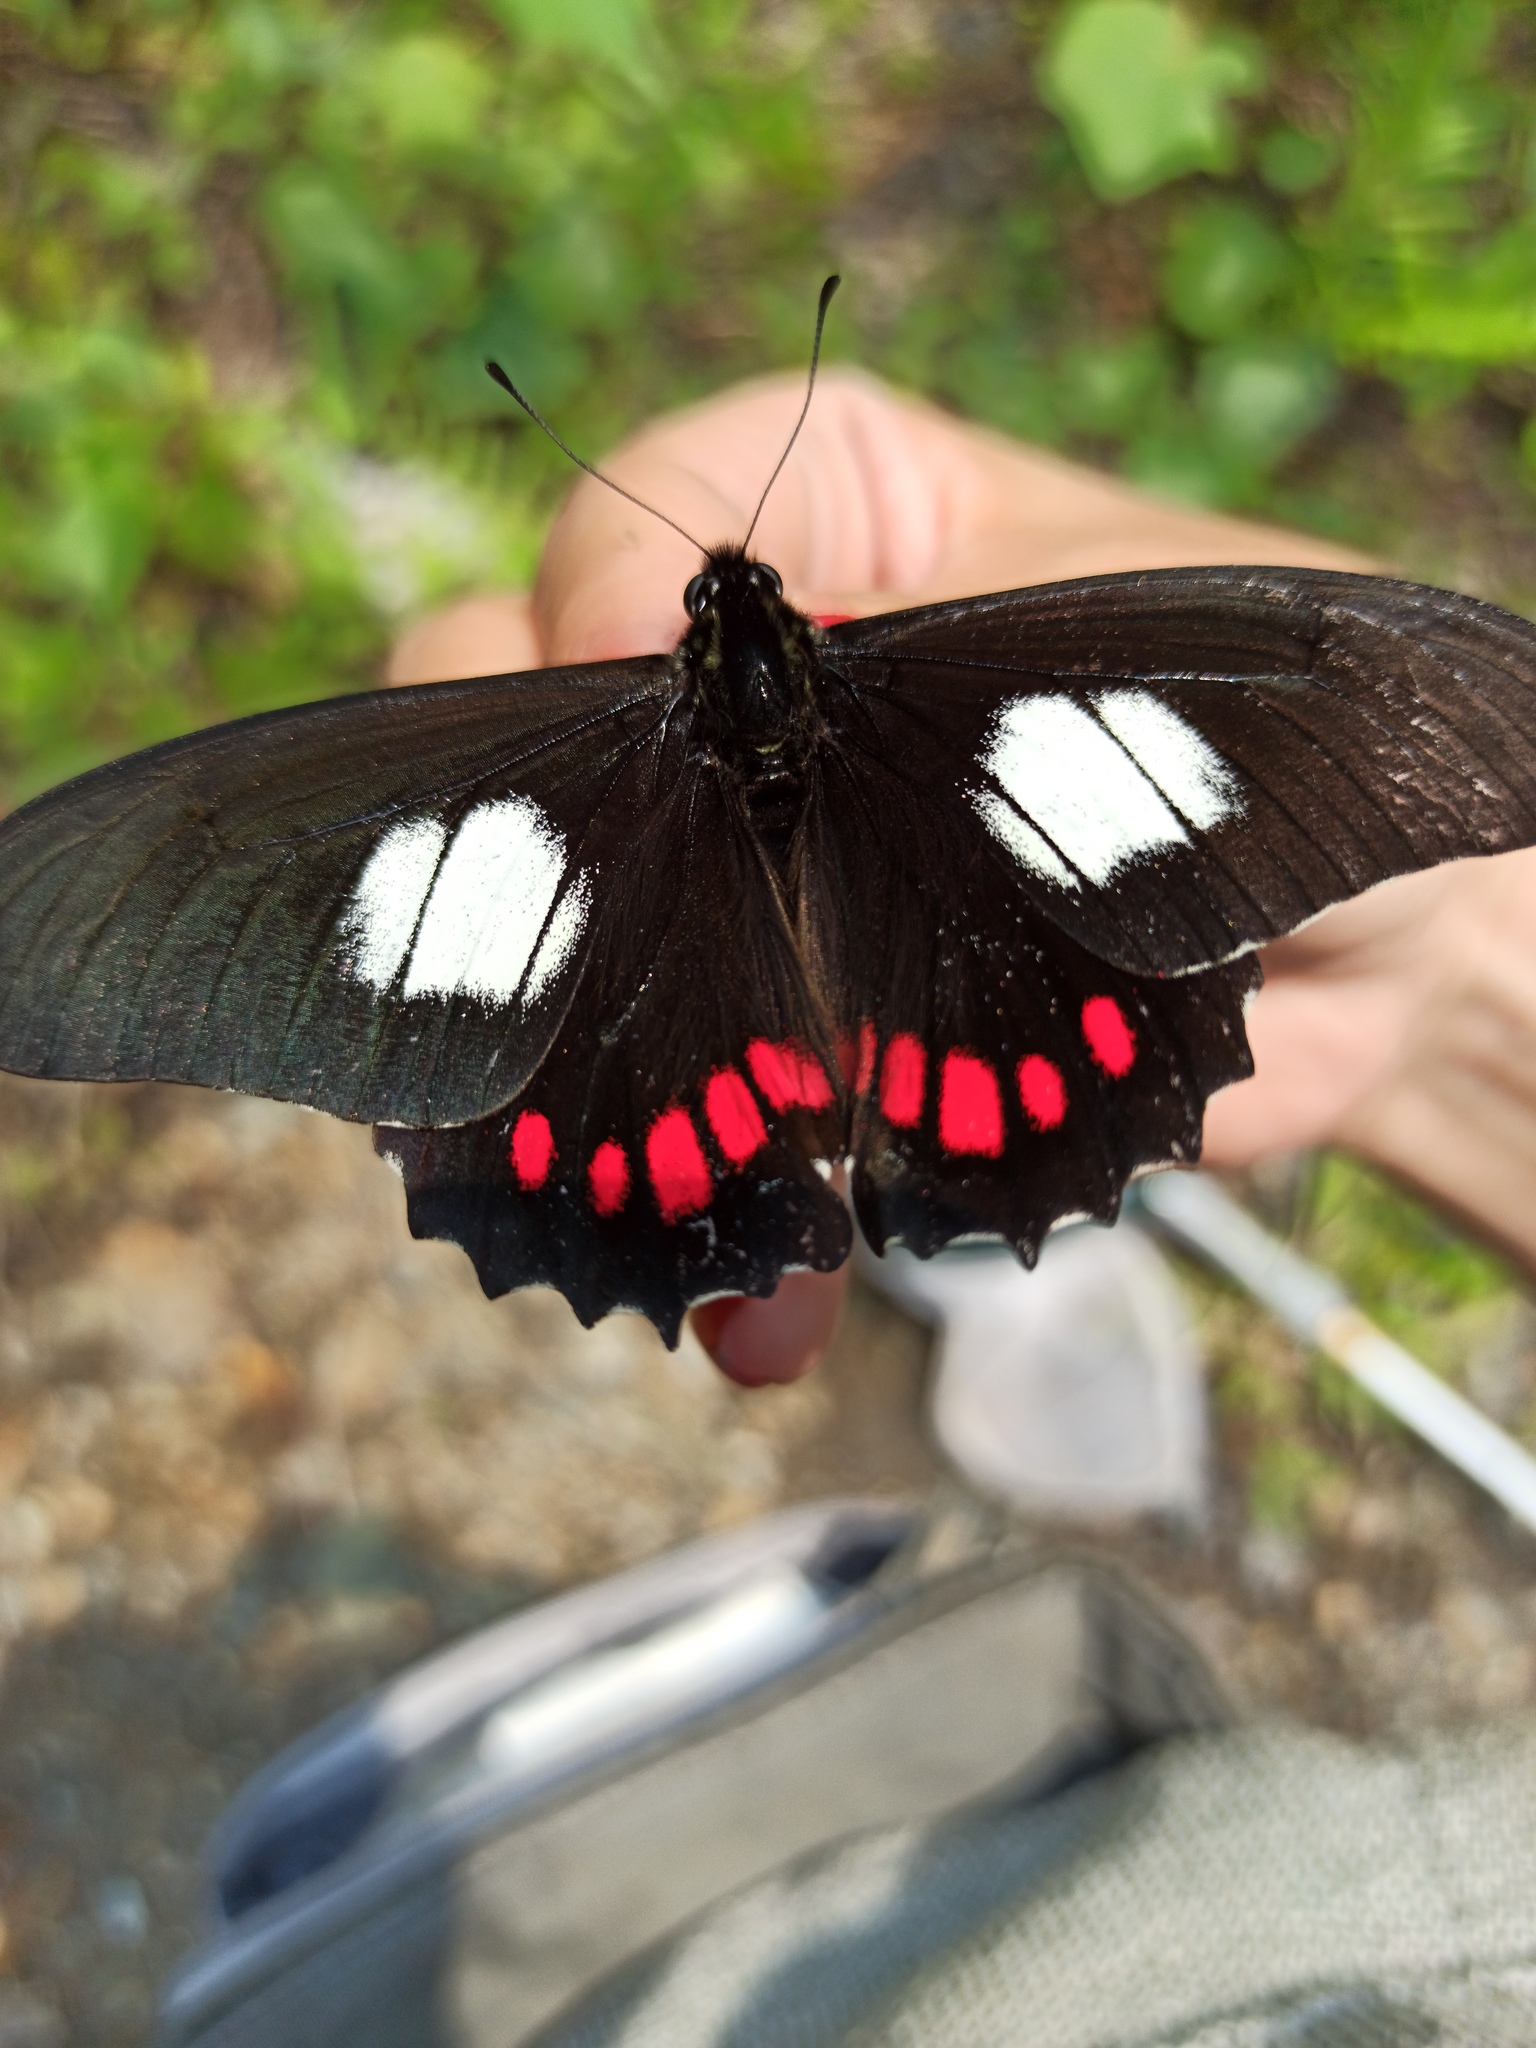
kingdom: Animalia
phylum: Arthropoda
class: Insecta
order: Lepidoptera
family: Papilionidae
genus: Mimoides
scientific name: Mimoides xeniades
